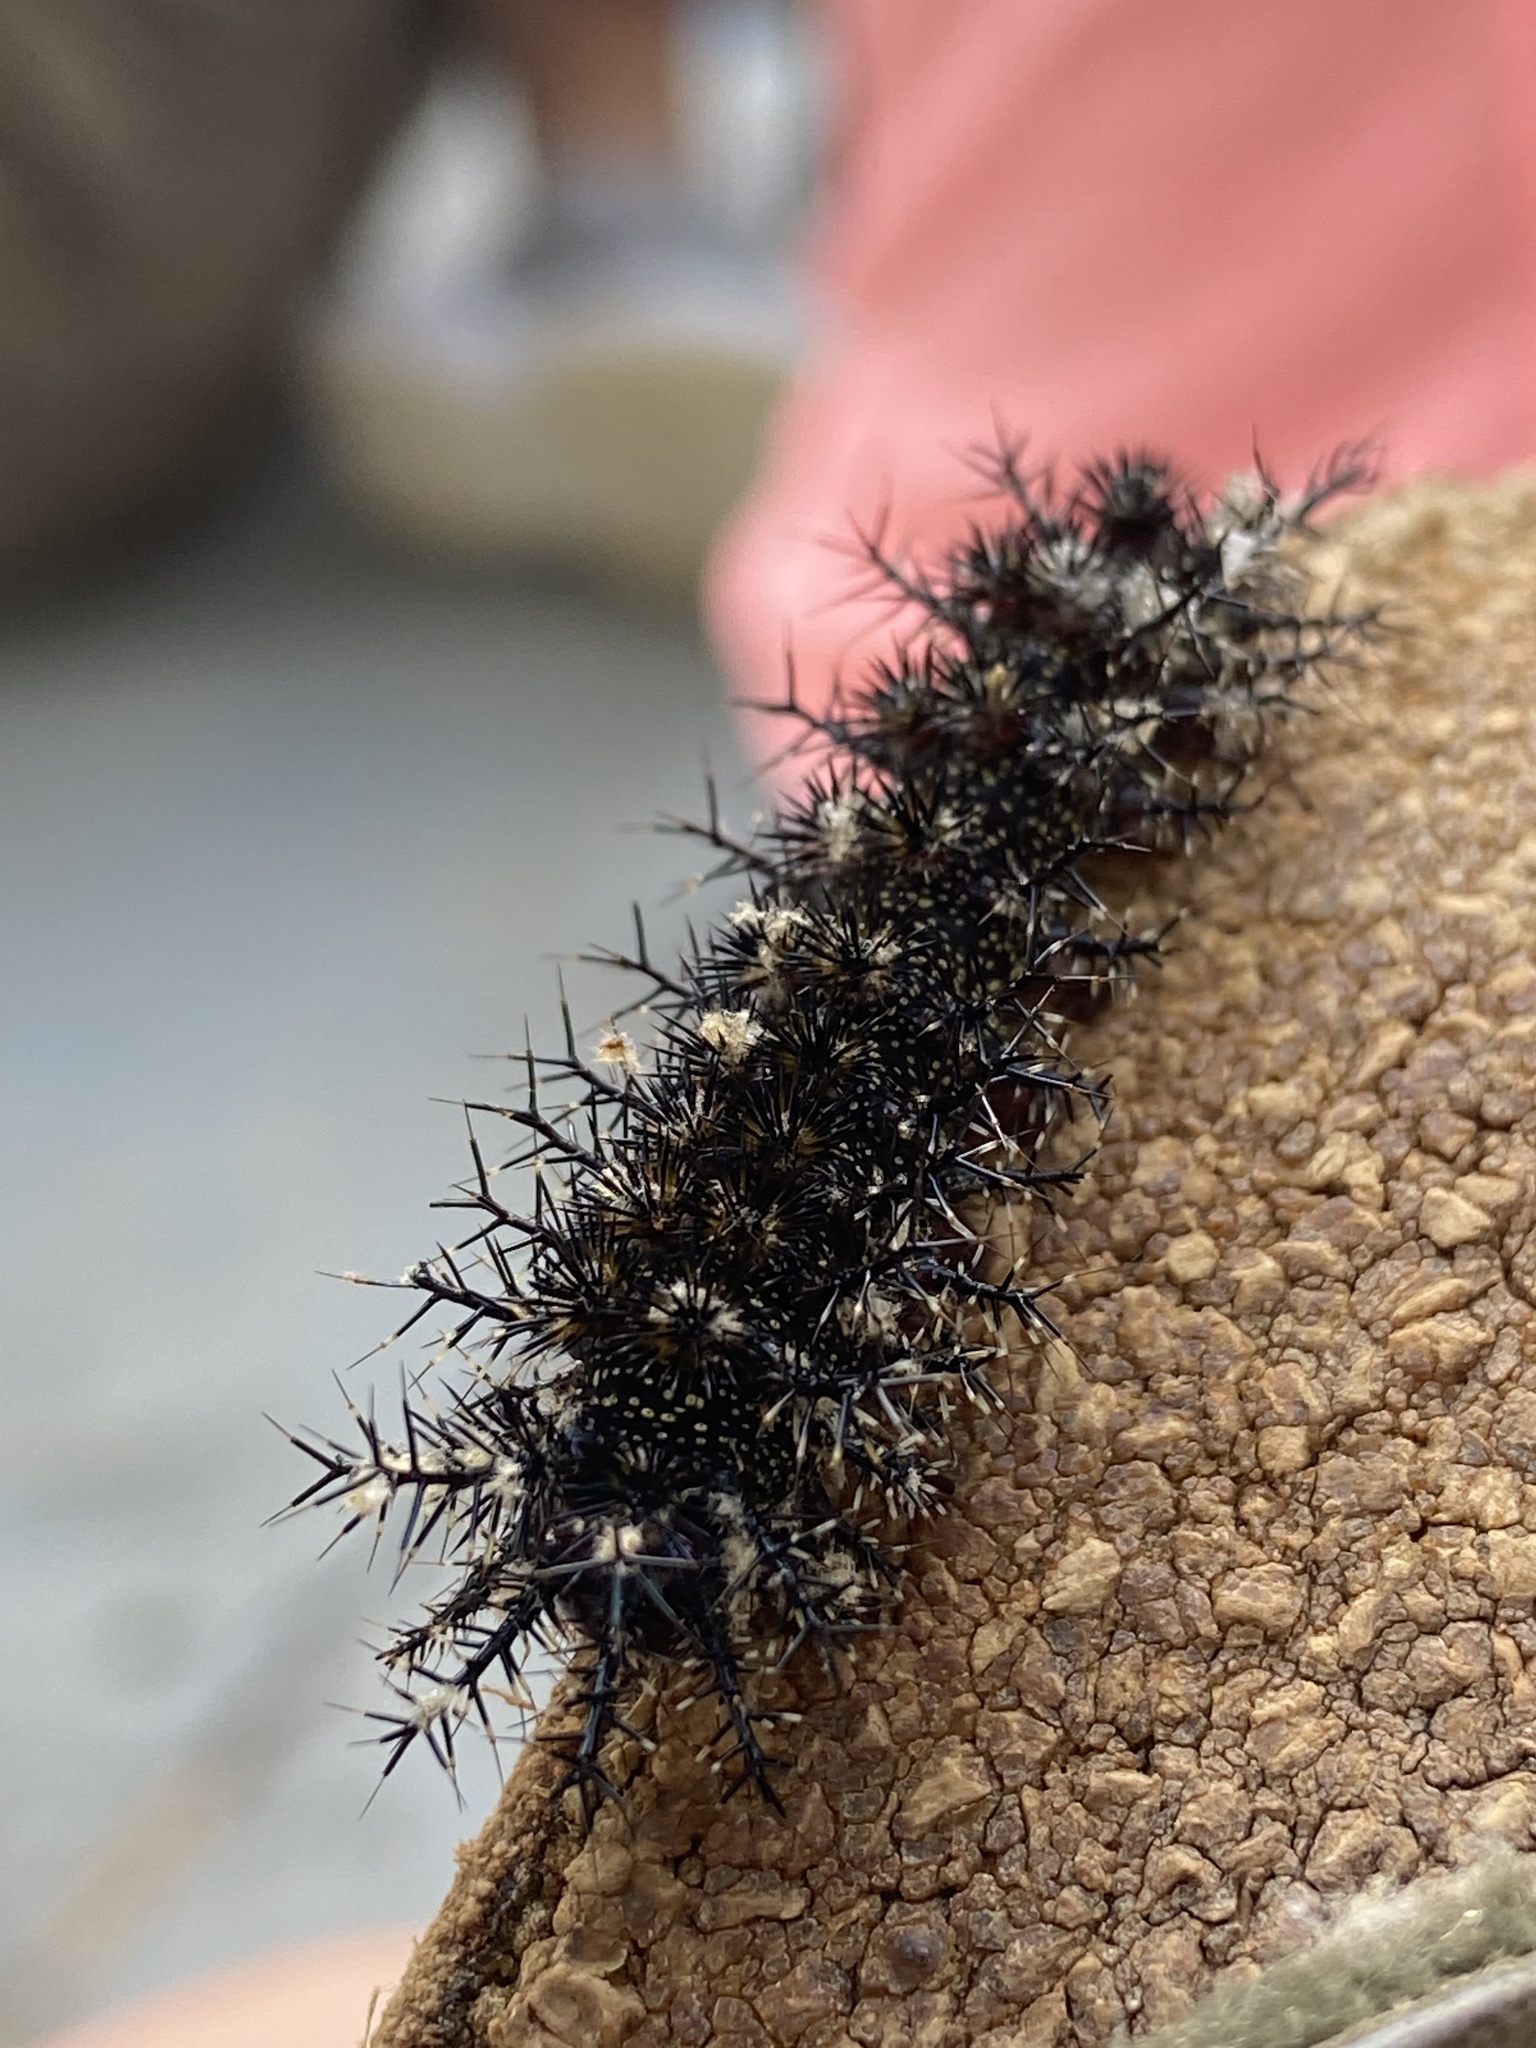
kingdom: Animalia
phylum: Arthropoda
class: Insecta
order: Lepidoptera
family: Saturniidae
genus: Hemileuca
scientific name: Hemileuca maia
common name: Eastern buckmoth
